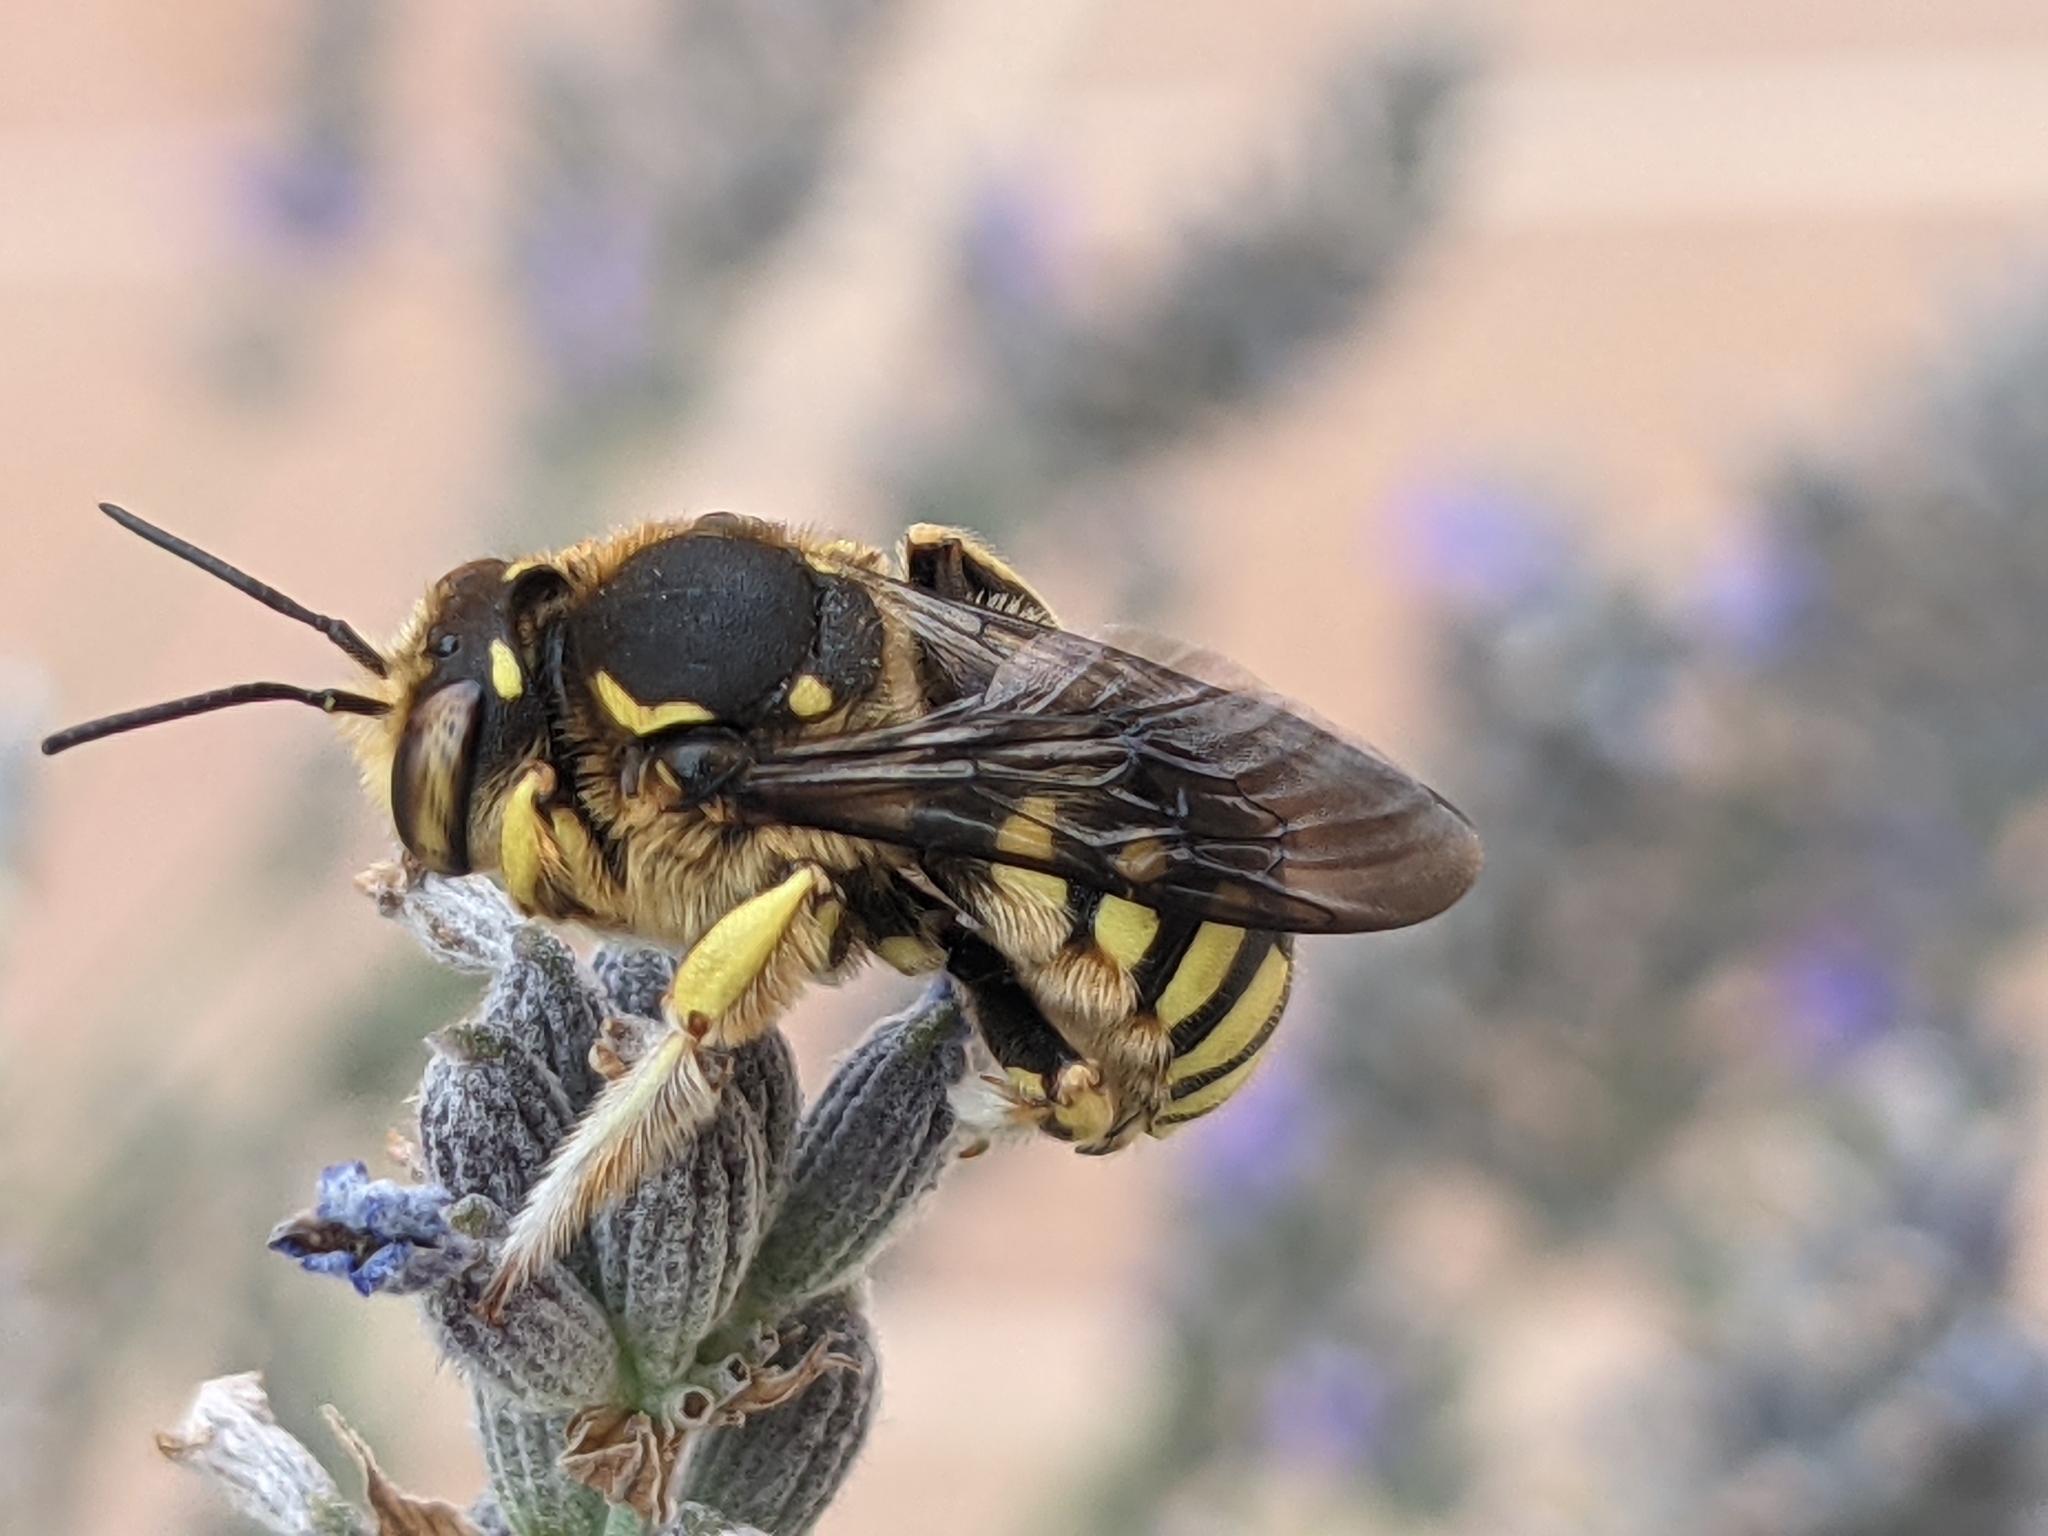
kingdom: Animalia
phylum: Arthropoda
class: Insecta
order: Hymenoptera
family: Megachilidae
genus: Anthidium
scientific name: Anthidium florentinum
